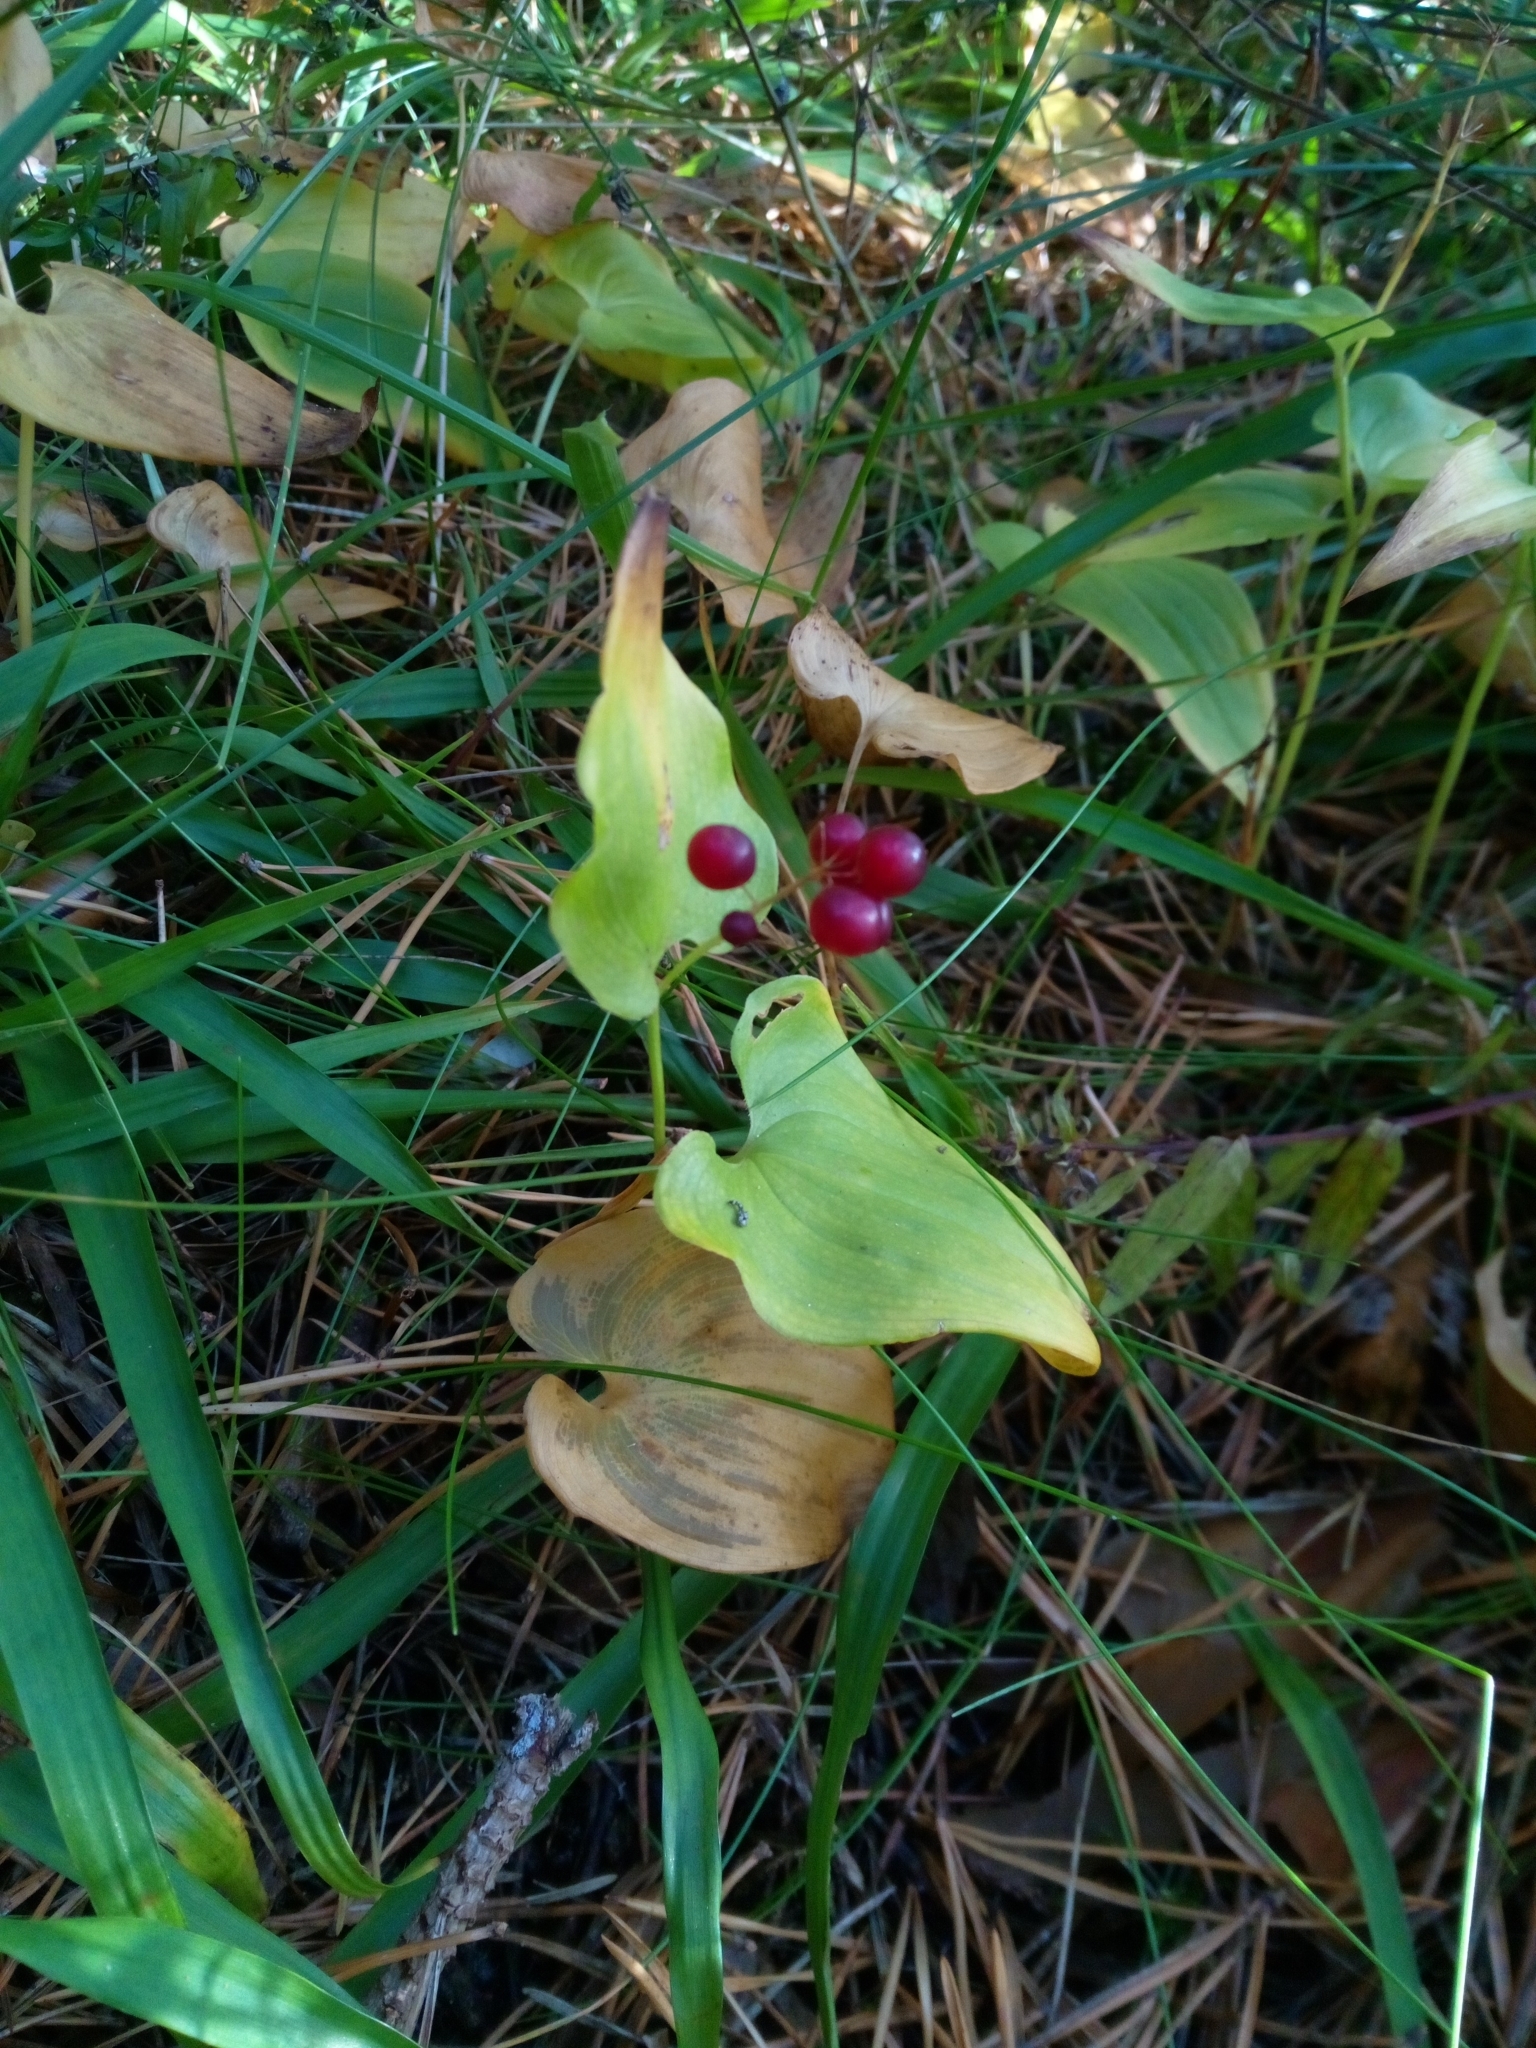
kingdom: Plantae
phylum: Tracheophyta
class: Liliopsida
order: Asparagales
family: Asparagaceae
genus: Maianthemum
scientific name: Maianthemum bifolium
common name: May lily
